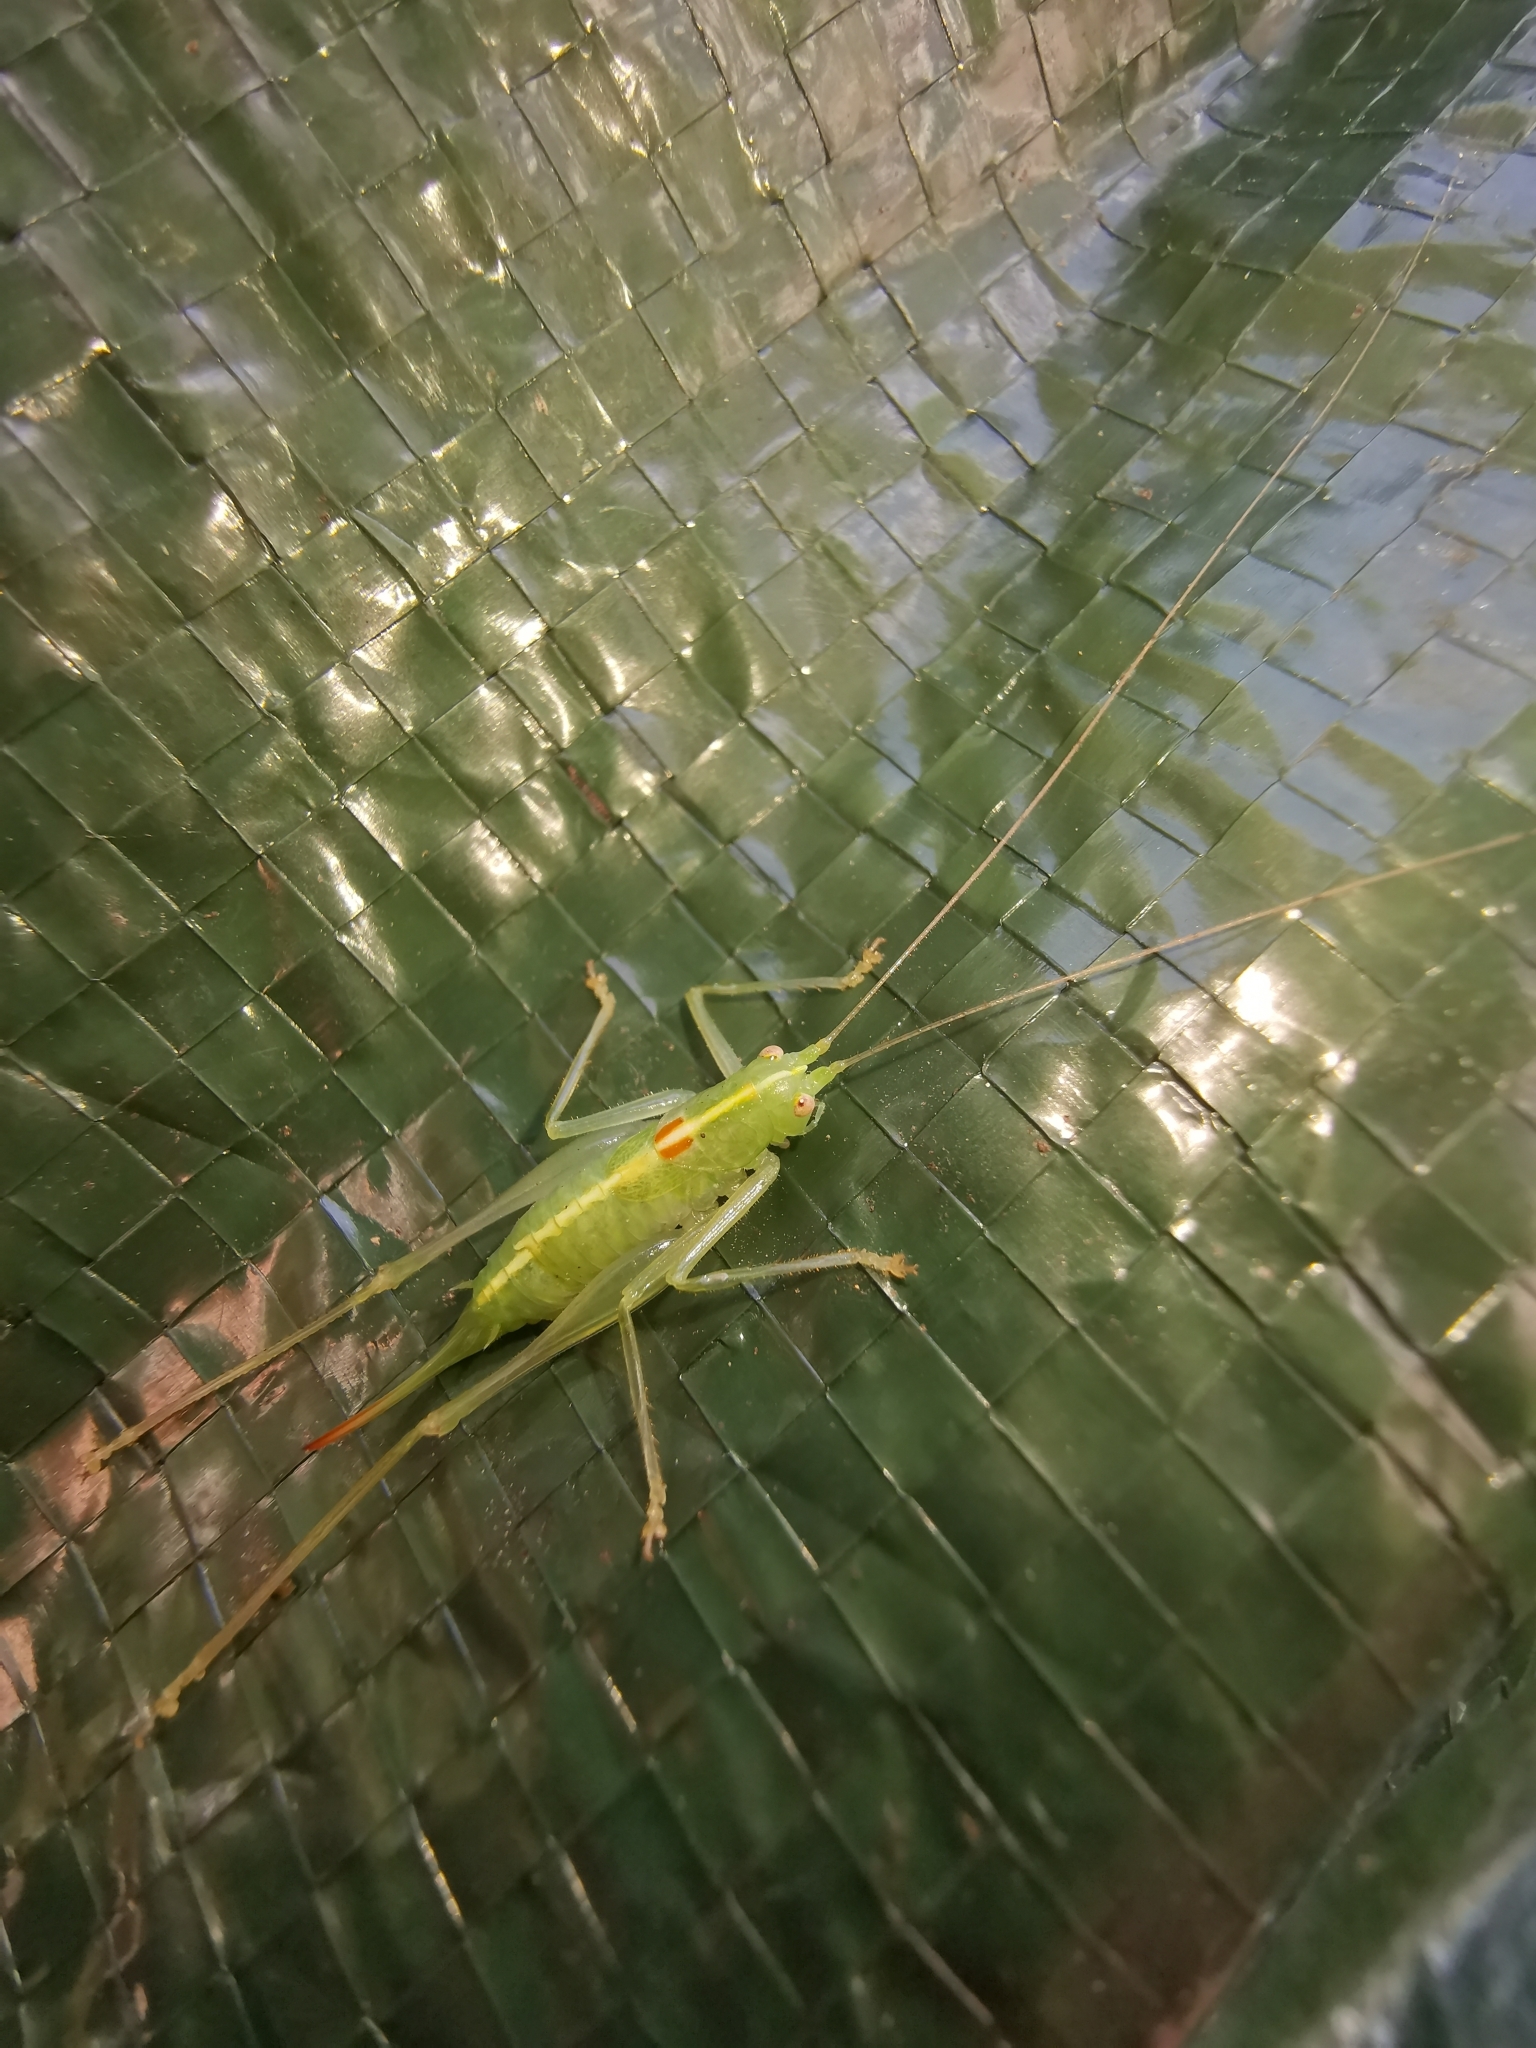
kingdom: Animalia
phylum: Arthropoda
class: Insecta
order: Orthoptera
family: Tettigoniidae
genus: Meconema
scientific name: Meconema meridionale
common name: Southern oak bush-cricket
